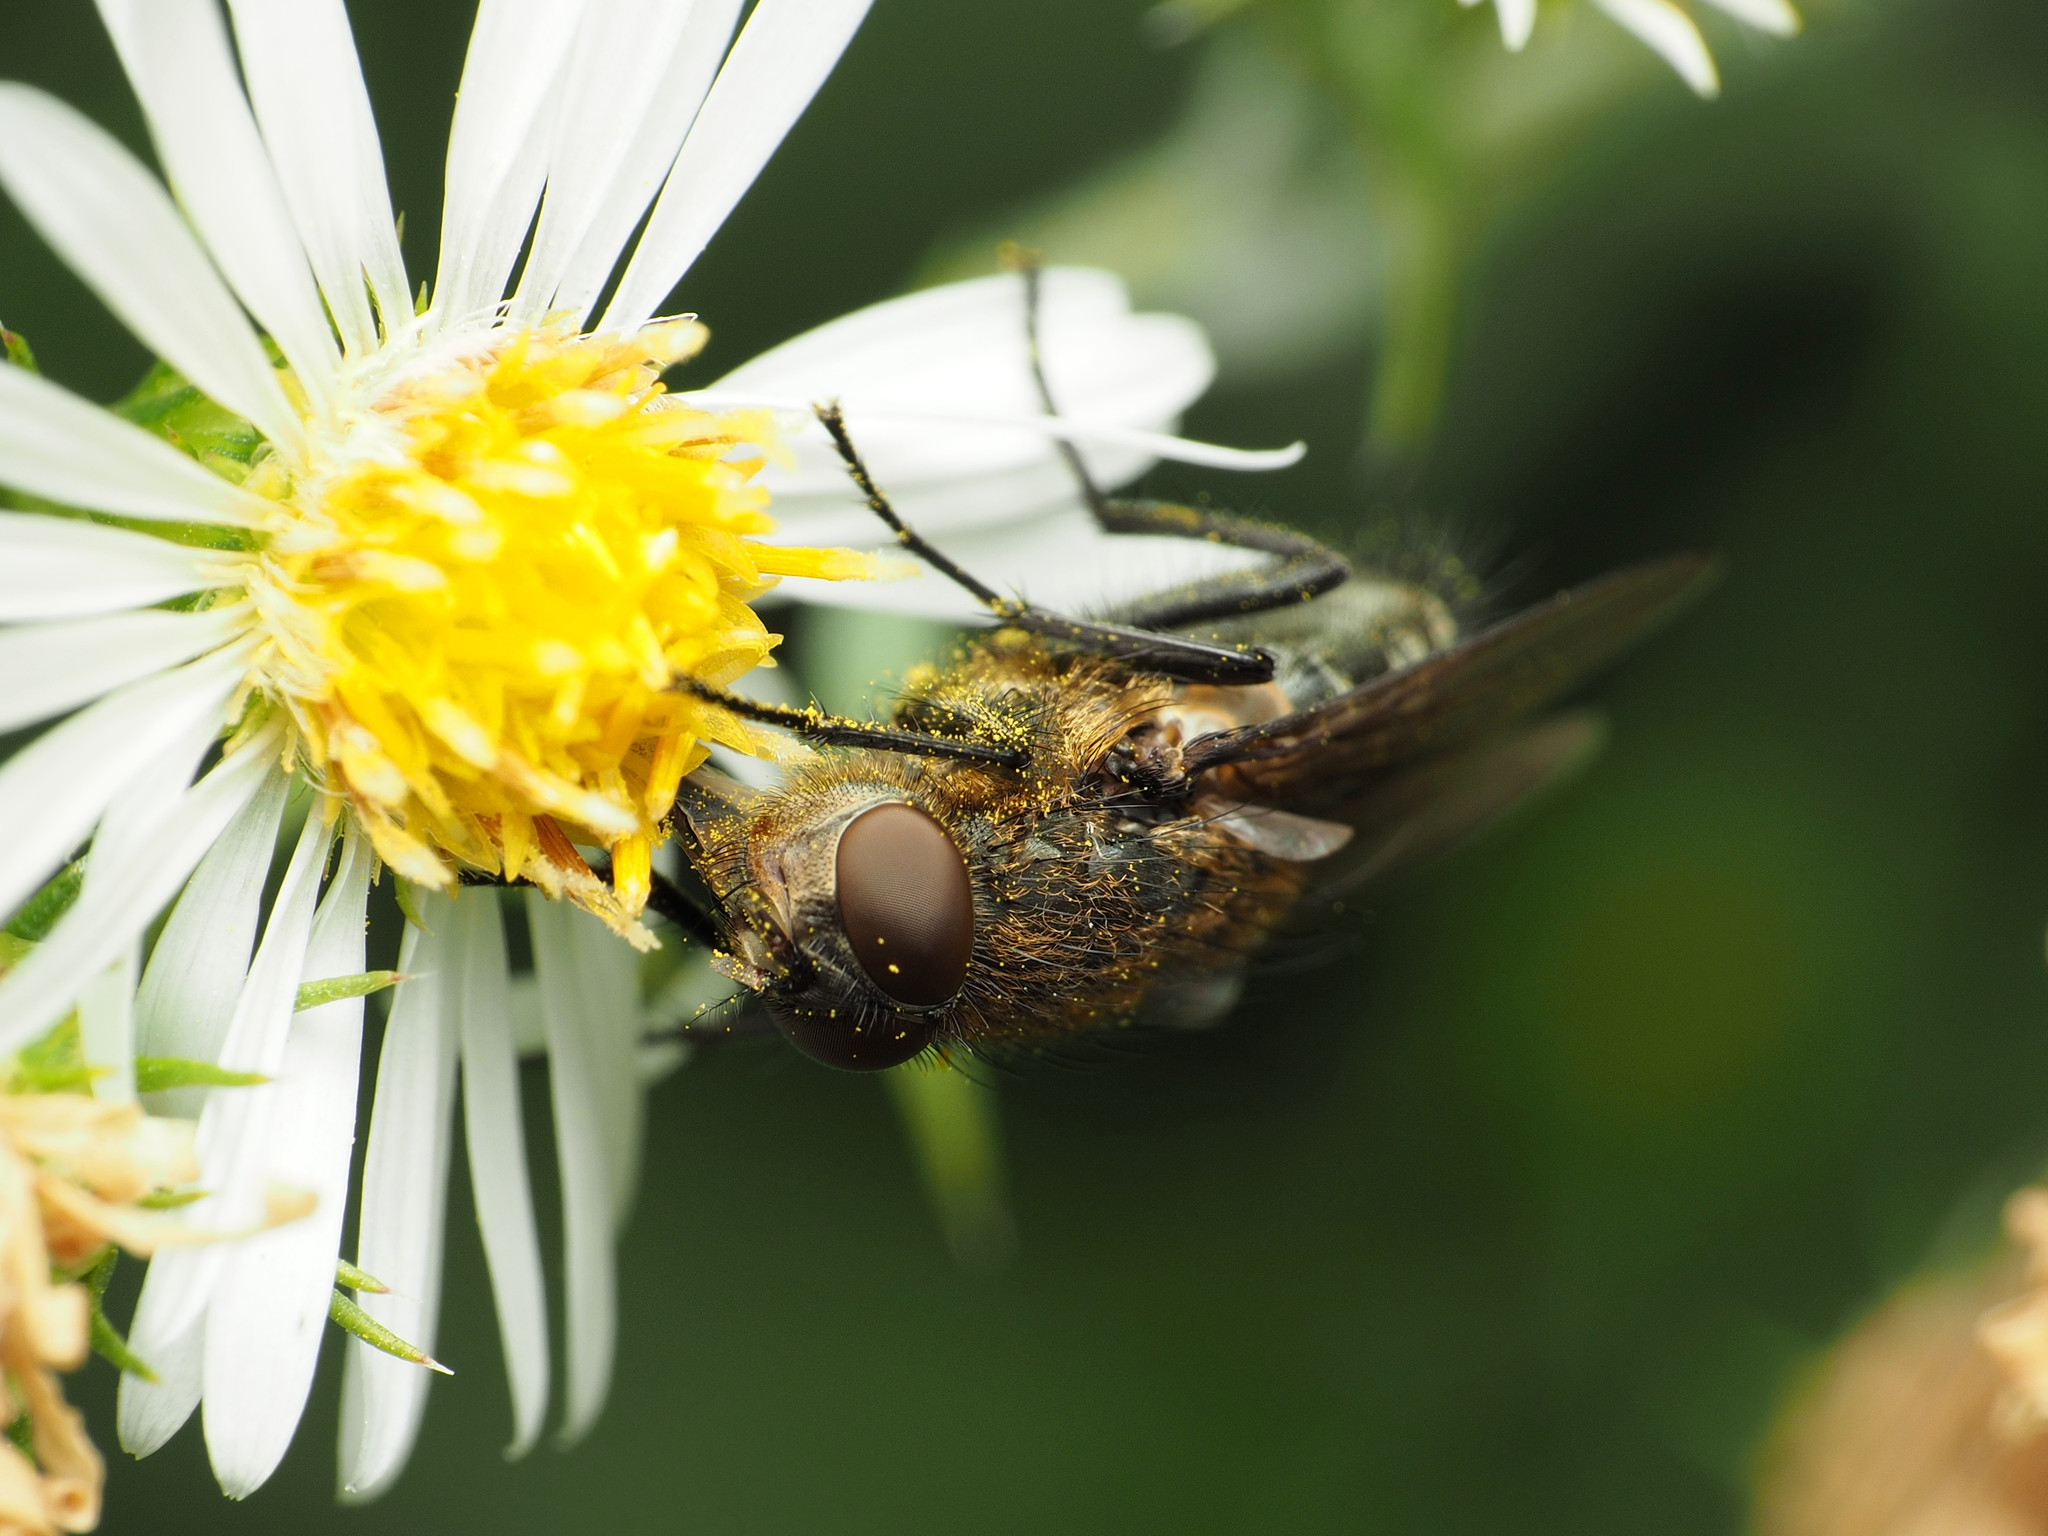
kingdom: Animalia
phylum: Arthropoda
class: Insecta
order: Diptera
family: Polleniidae
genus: Pollenia
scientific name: Pollenia
